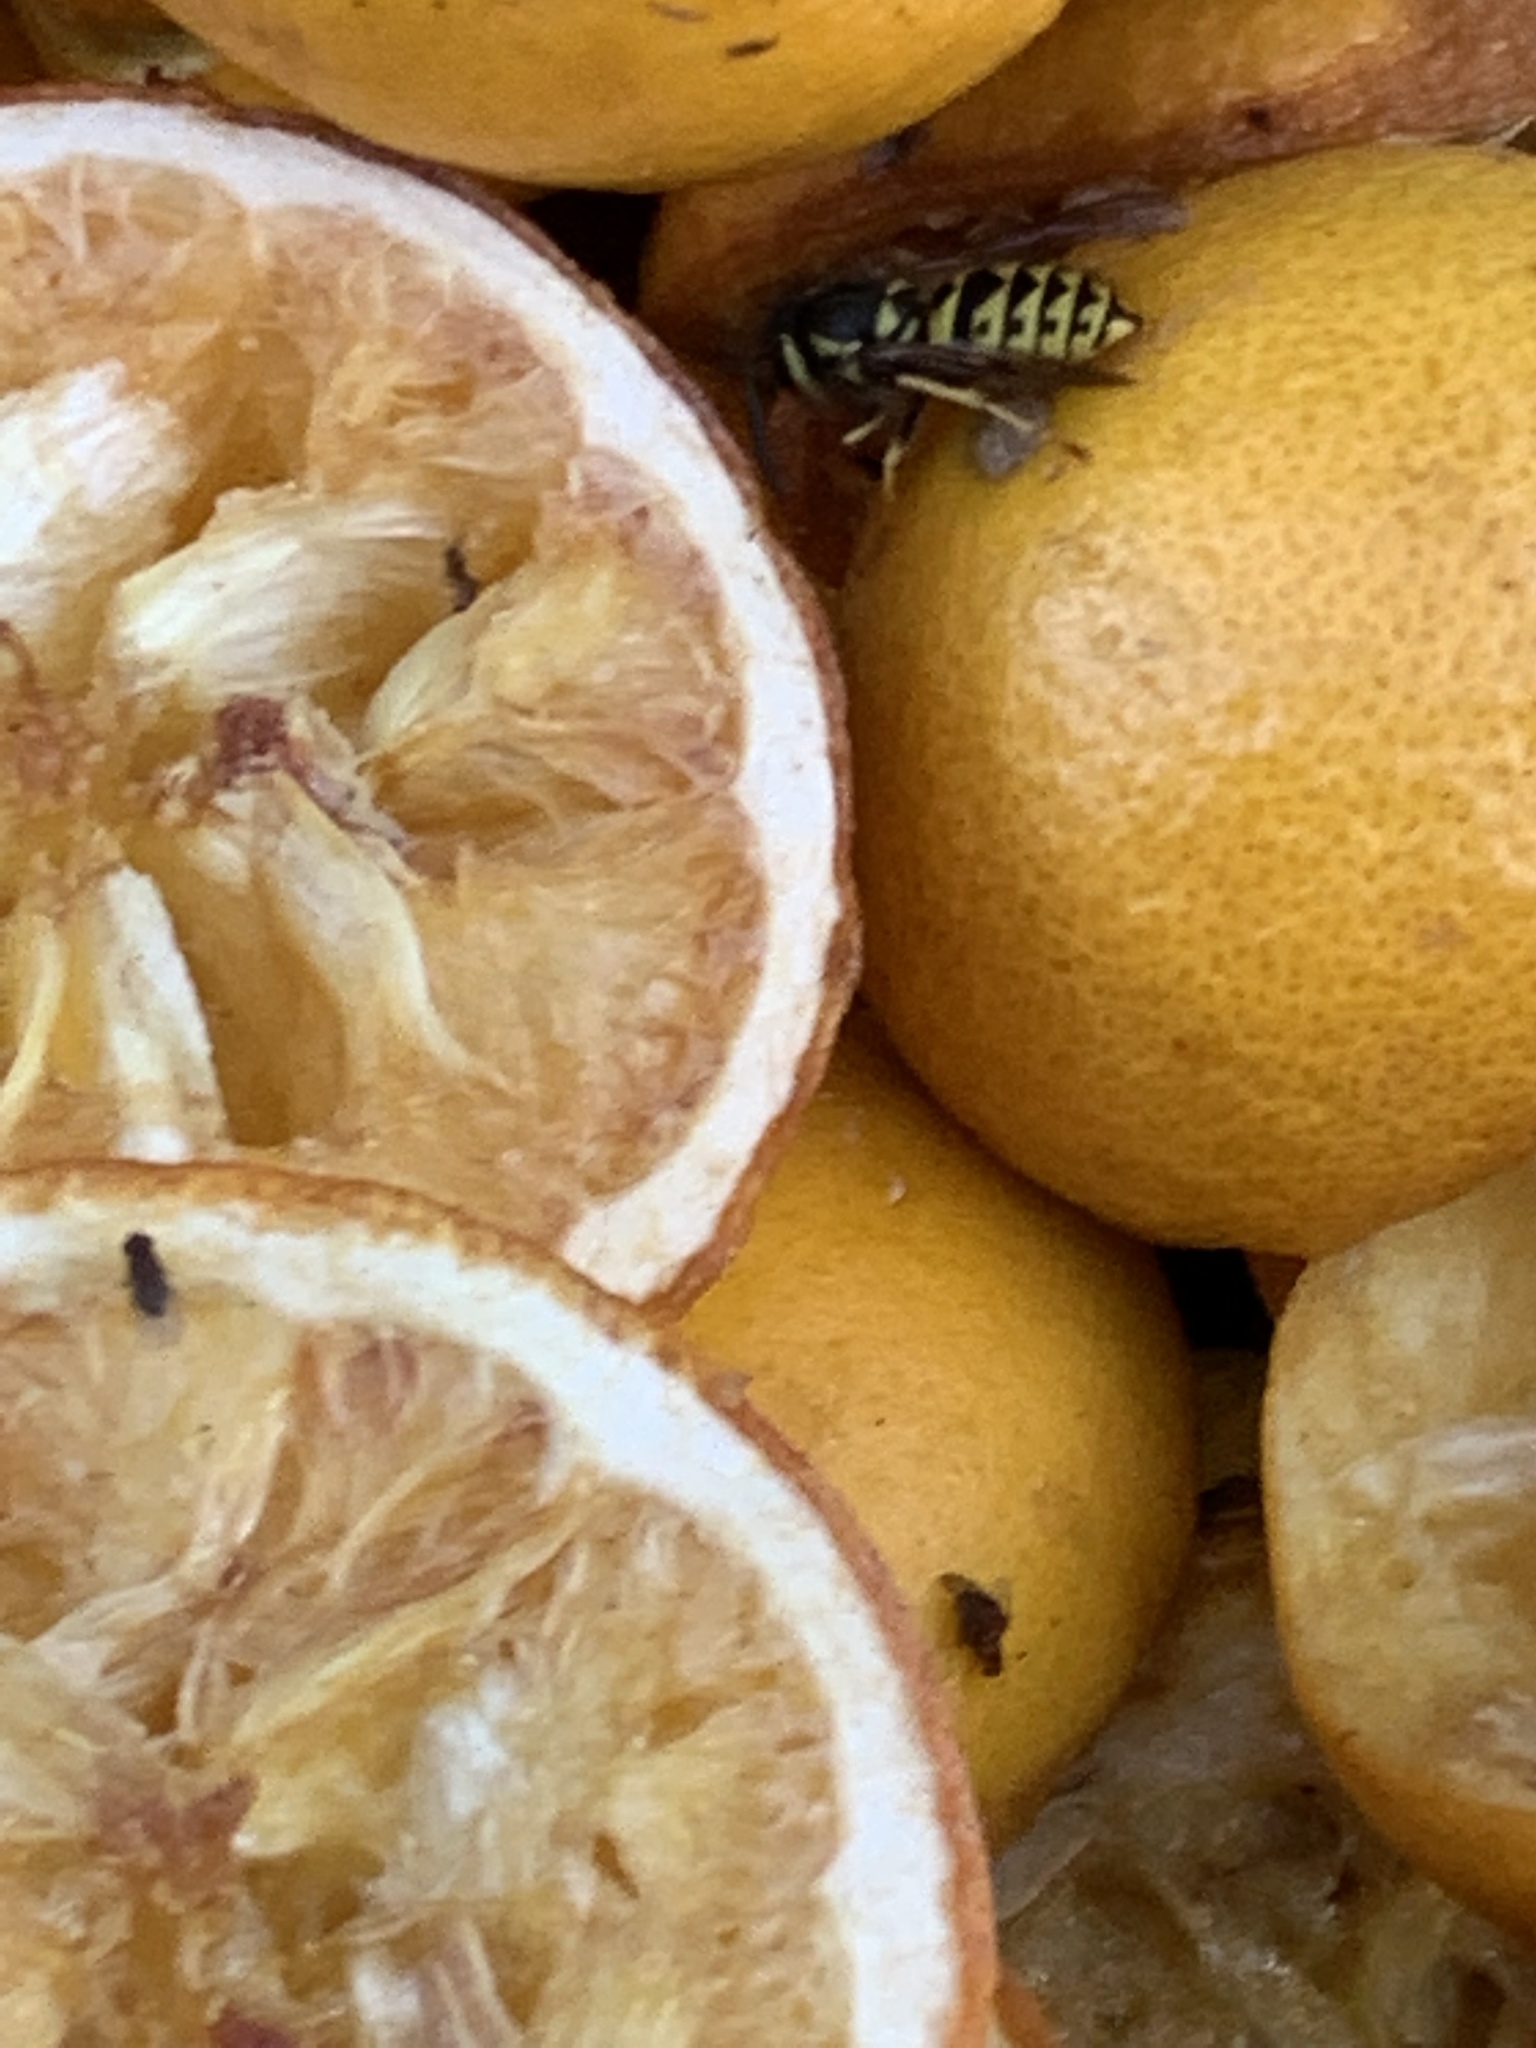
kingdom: Animalia
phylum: Arthropoda
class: Insecta
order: Hymenoptera
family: Vespidae
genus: Vespula
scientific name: Vespula pensylvanica
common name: Western yellowjacket
